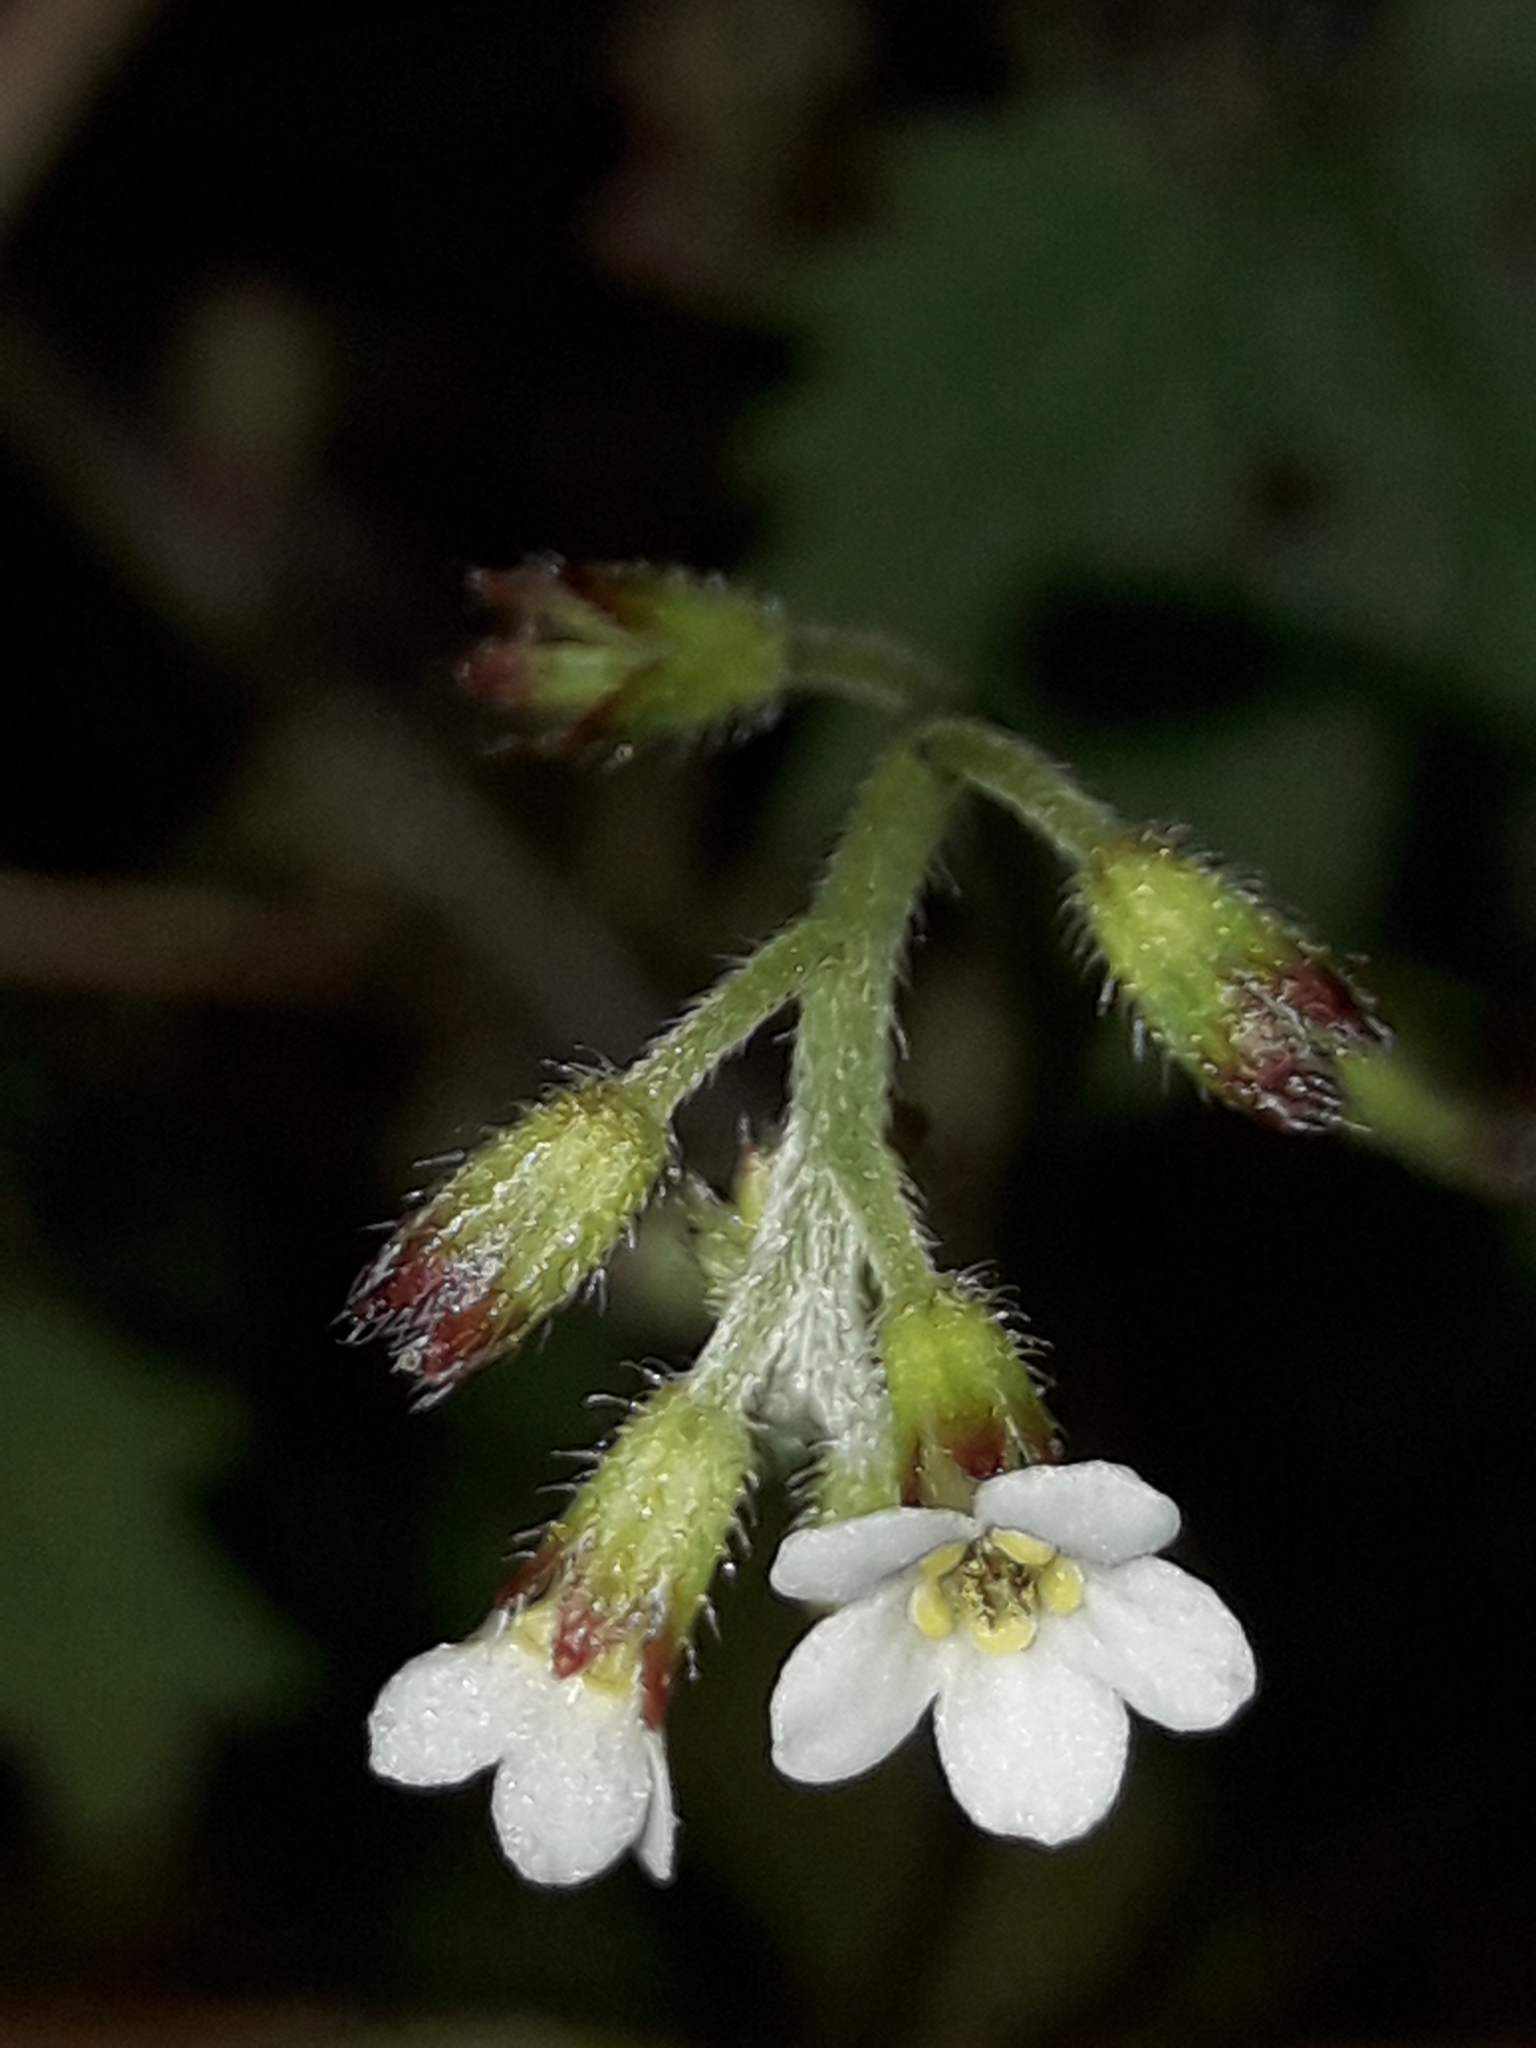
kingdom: Plantae
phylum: Tracheophyta
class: Magnoliopsida
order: Boraginales
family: Boraginaceae
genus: Myosotis
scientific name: Myosotis forsteri
